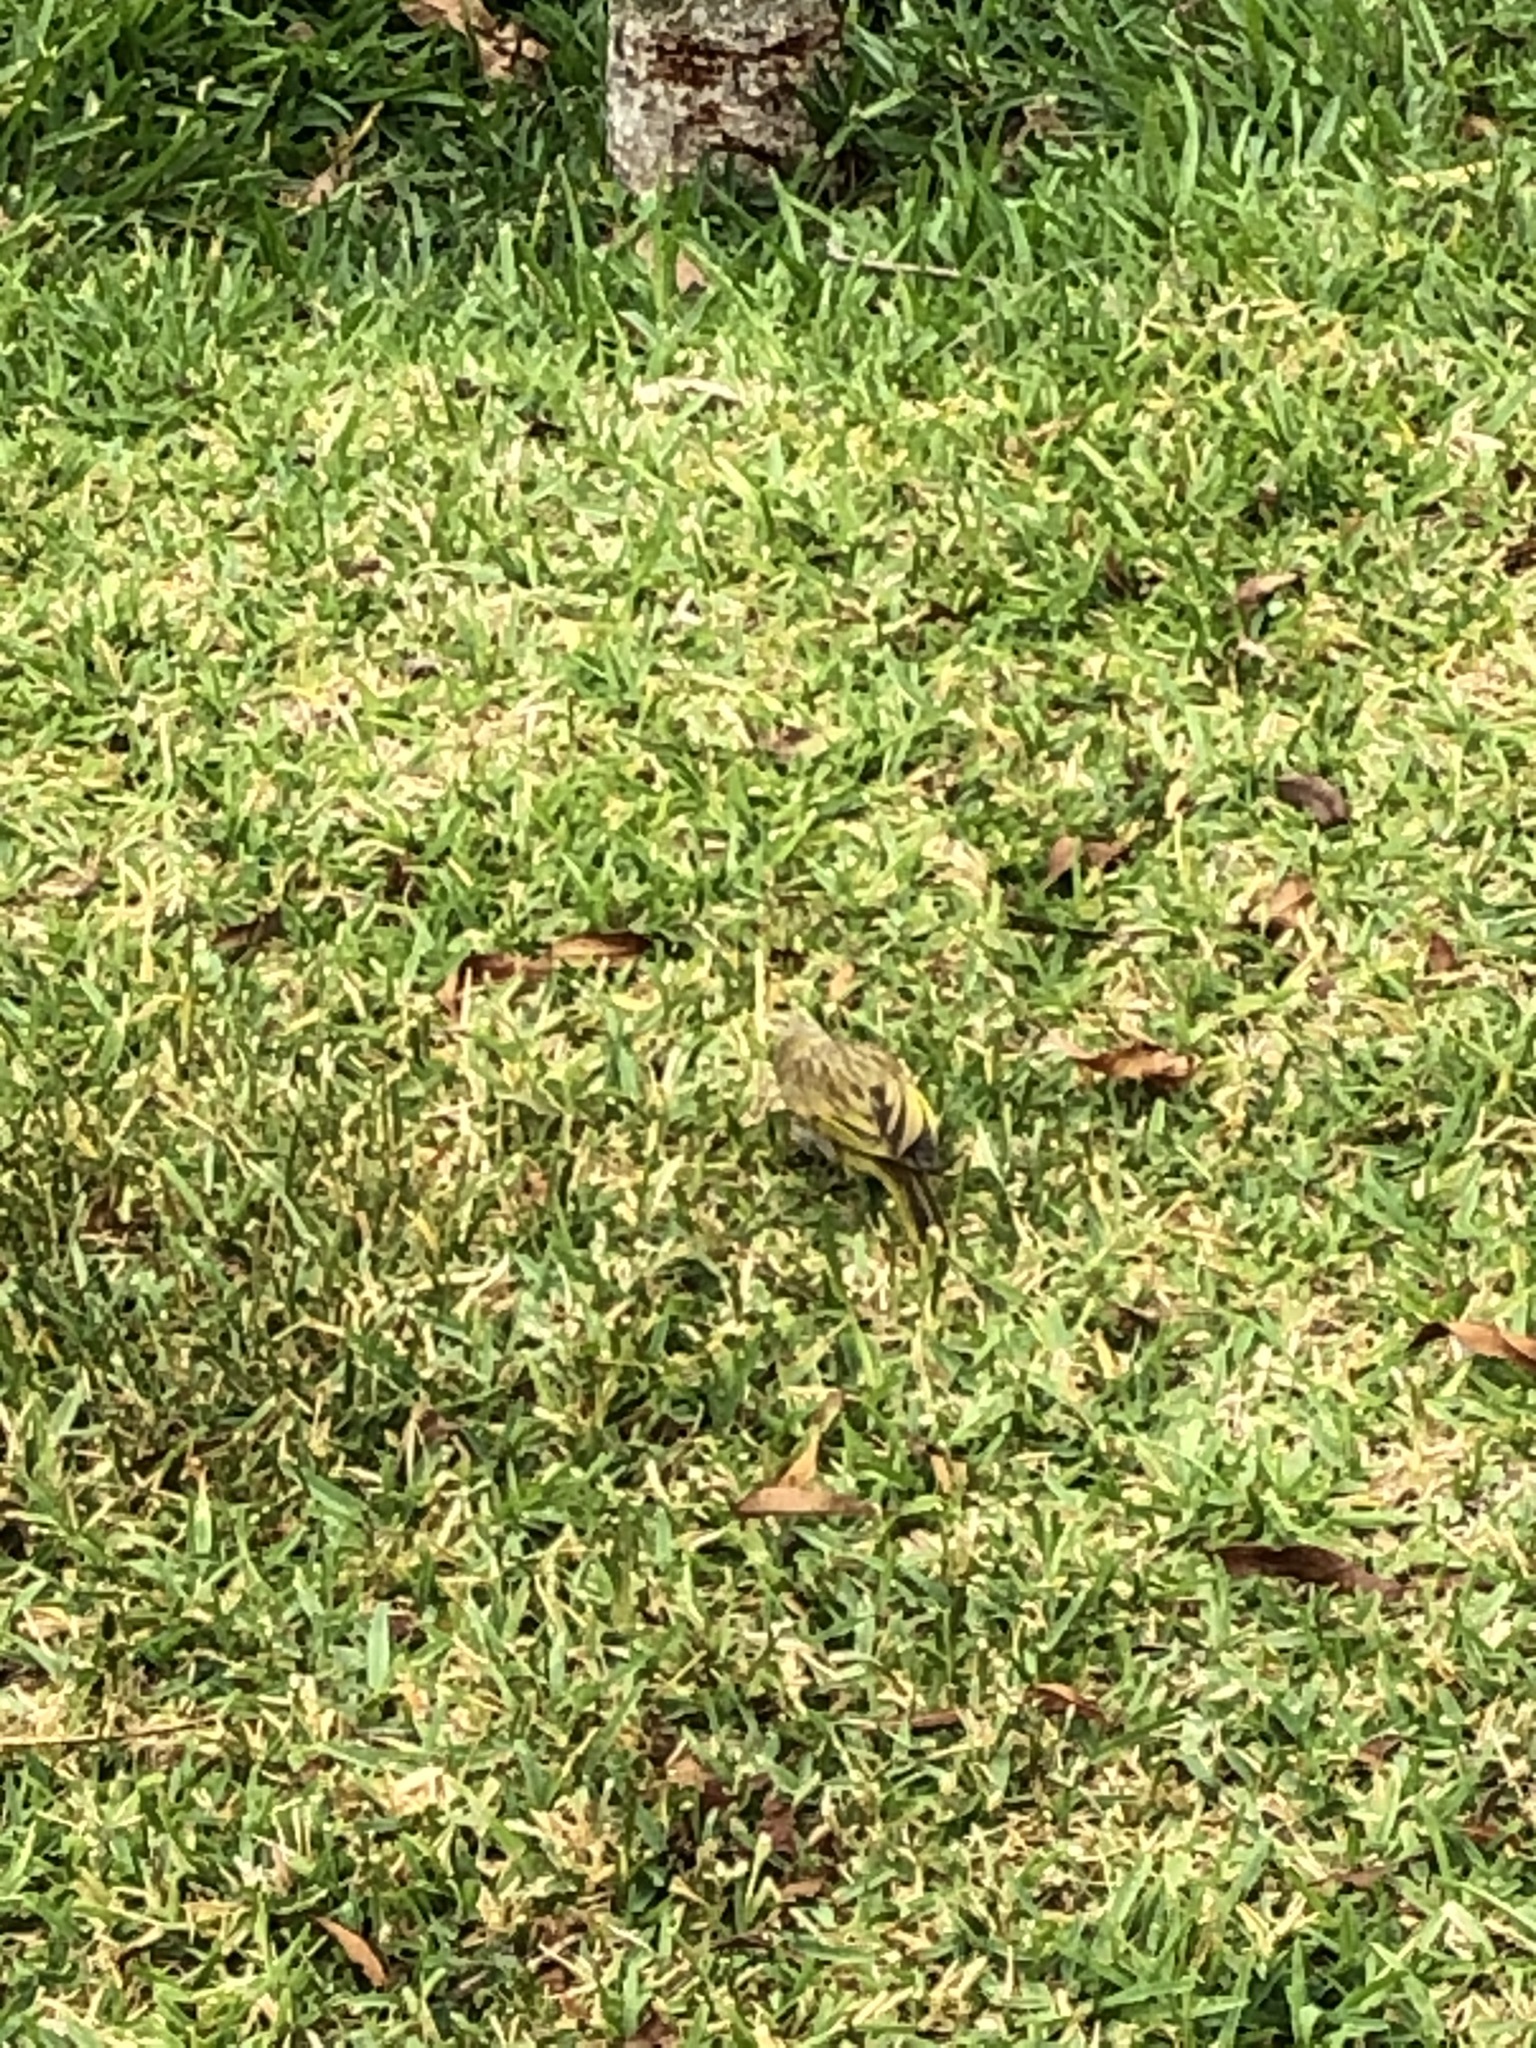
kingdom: Animalia
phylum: Chordata
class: Aves
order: Passeriformes
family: Thraupidae
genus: Sicalis
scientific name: Sicalis flaveola
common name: Saffron finch
